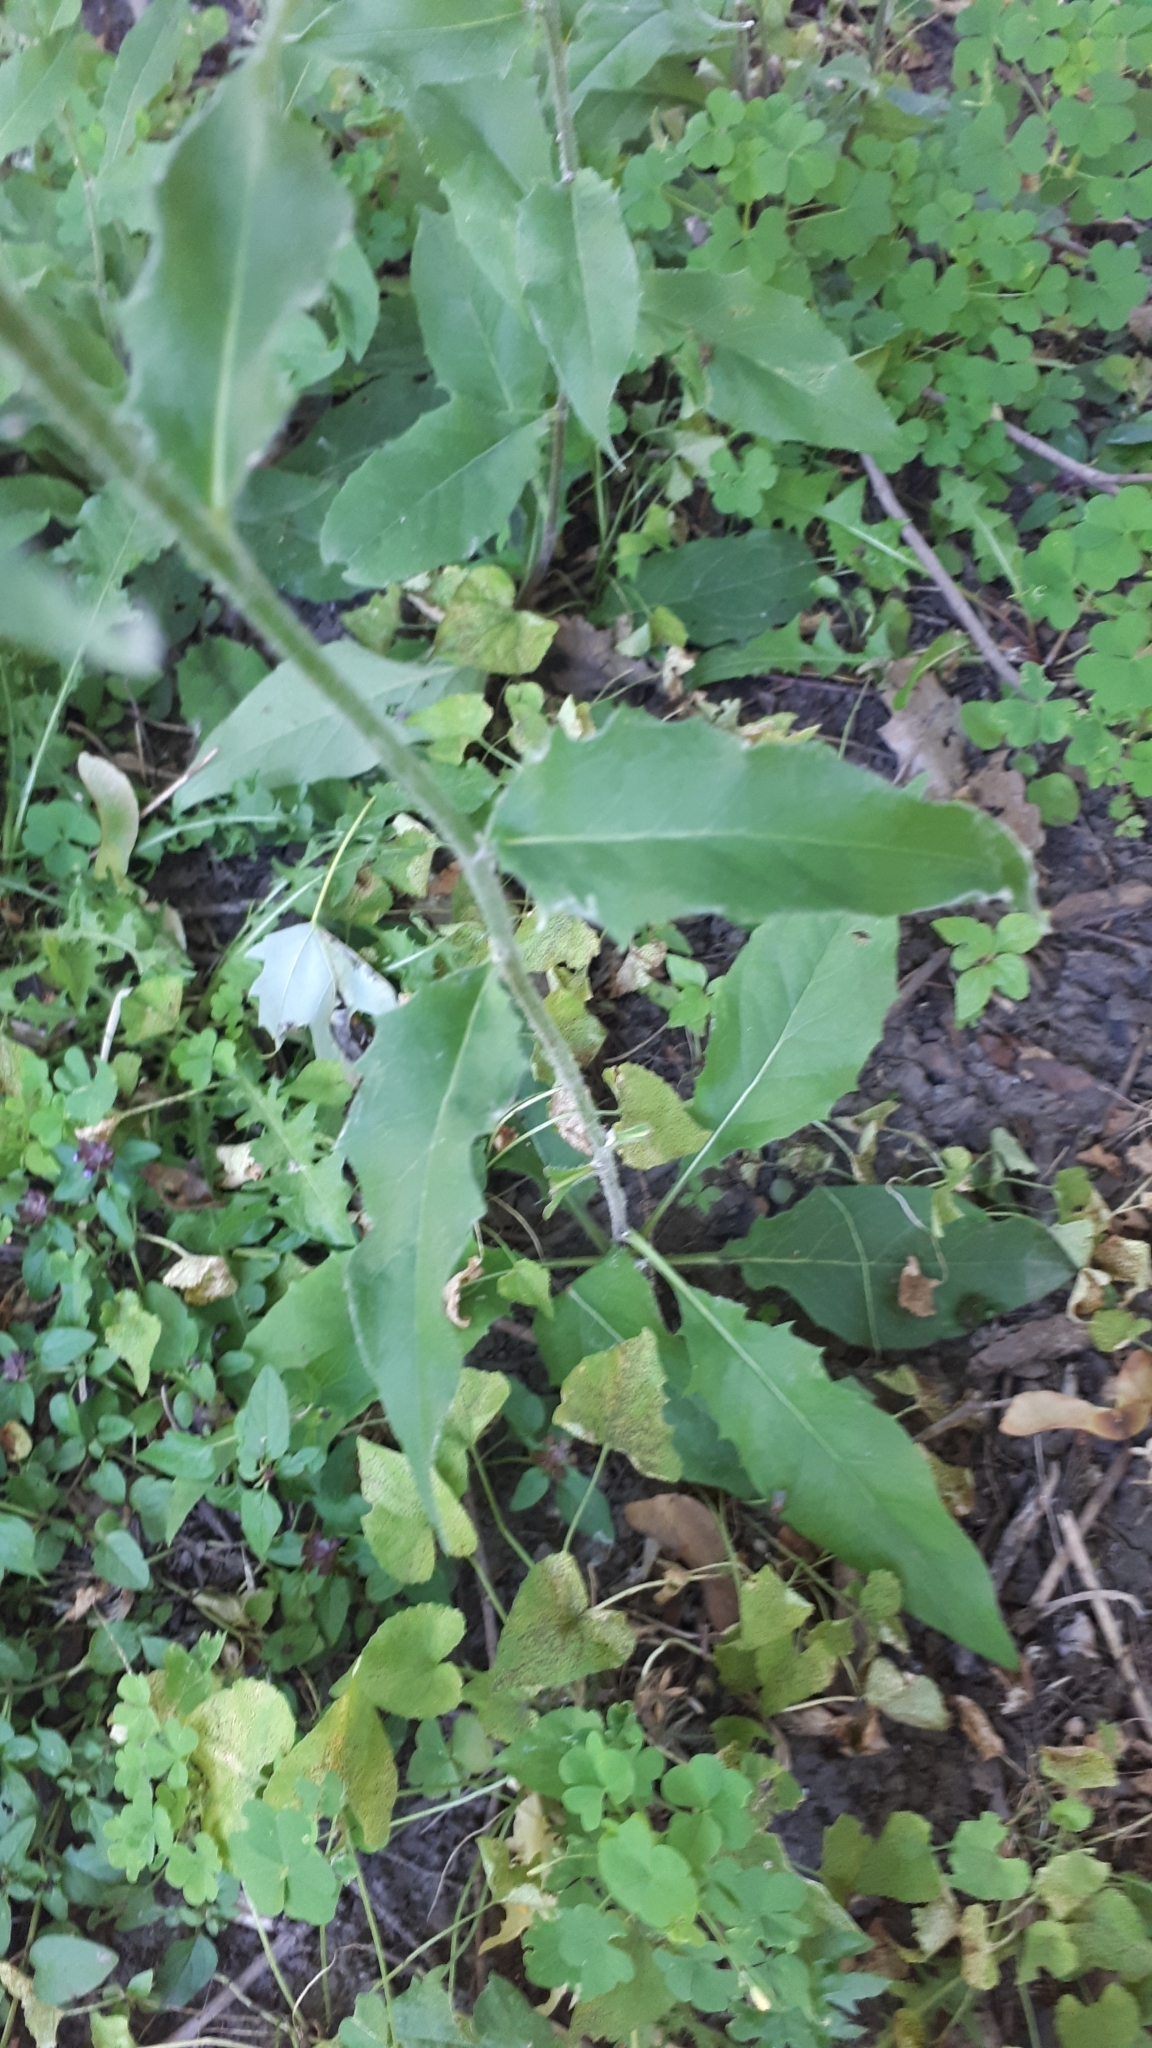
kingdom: Plantae
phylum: Tracheophyta
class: Magnoliopsida
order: Asterales
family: Asteraceae
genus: Hieracium
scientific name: Hieracium lachenalii
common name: Common hawkweed
